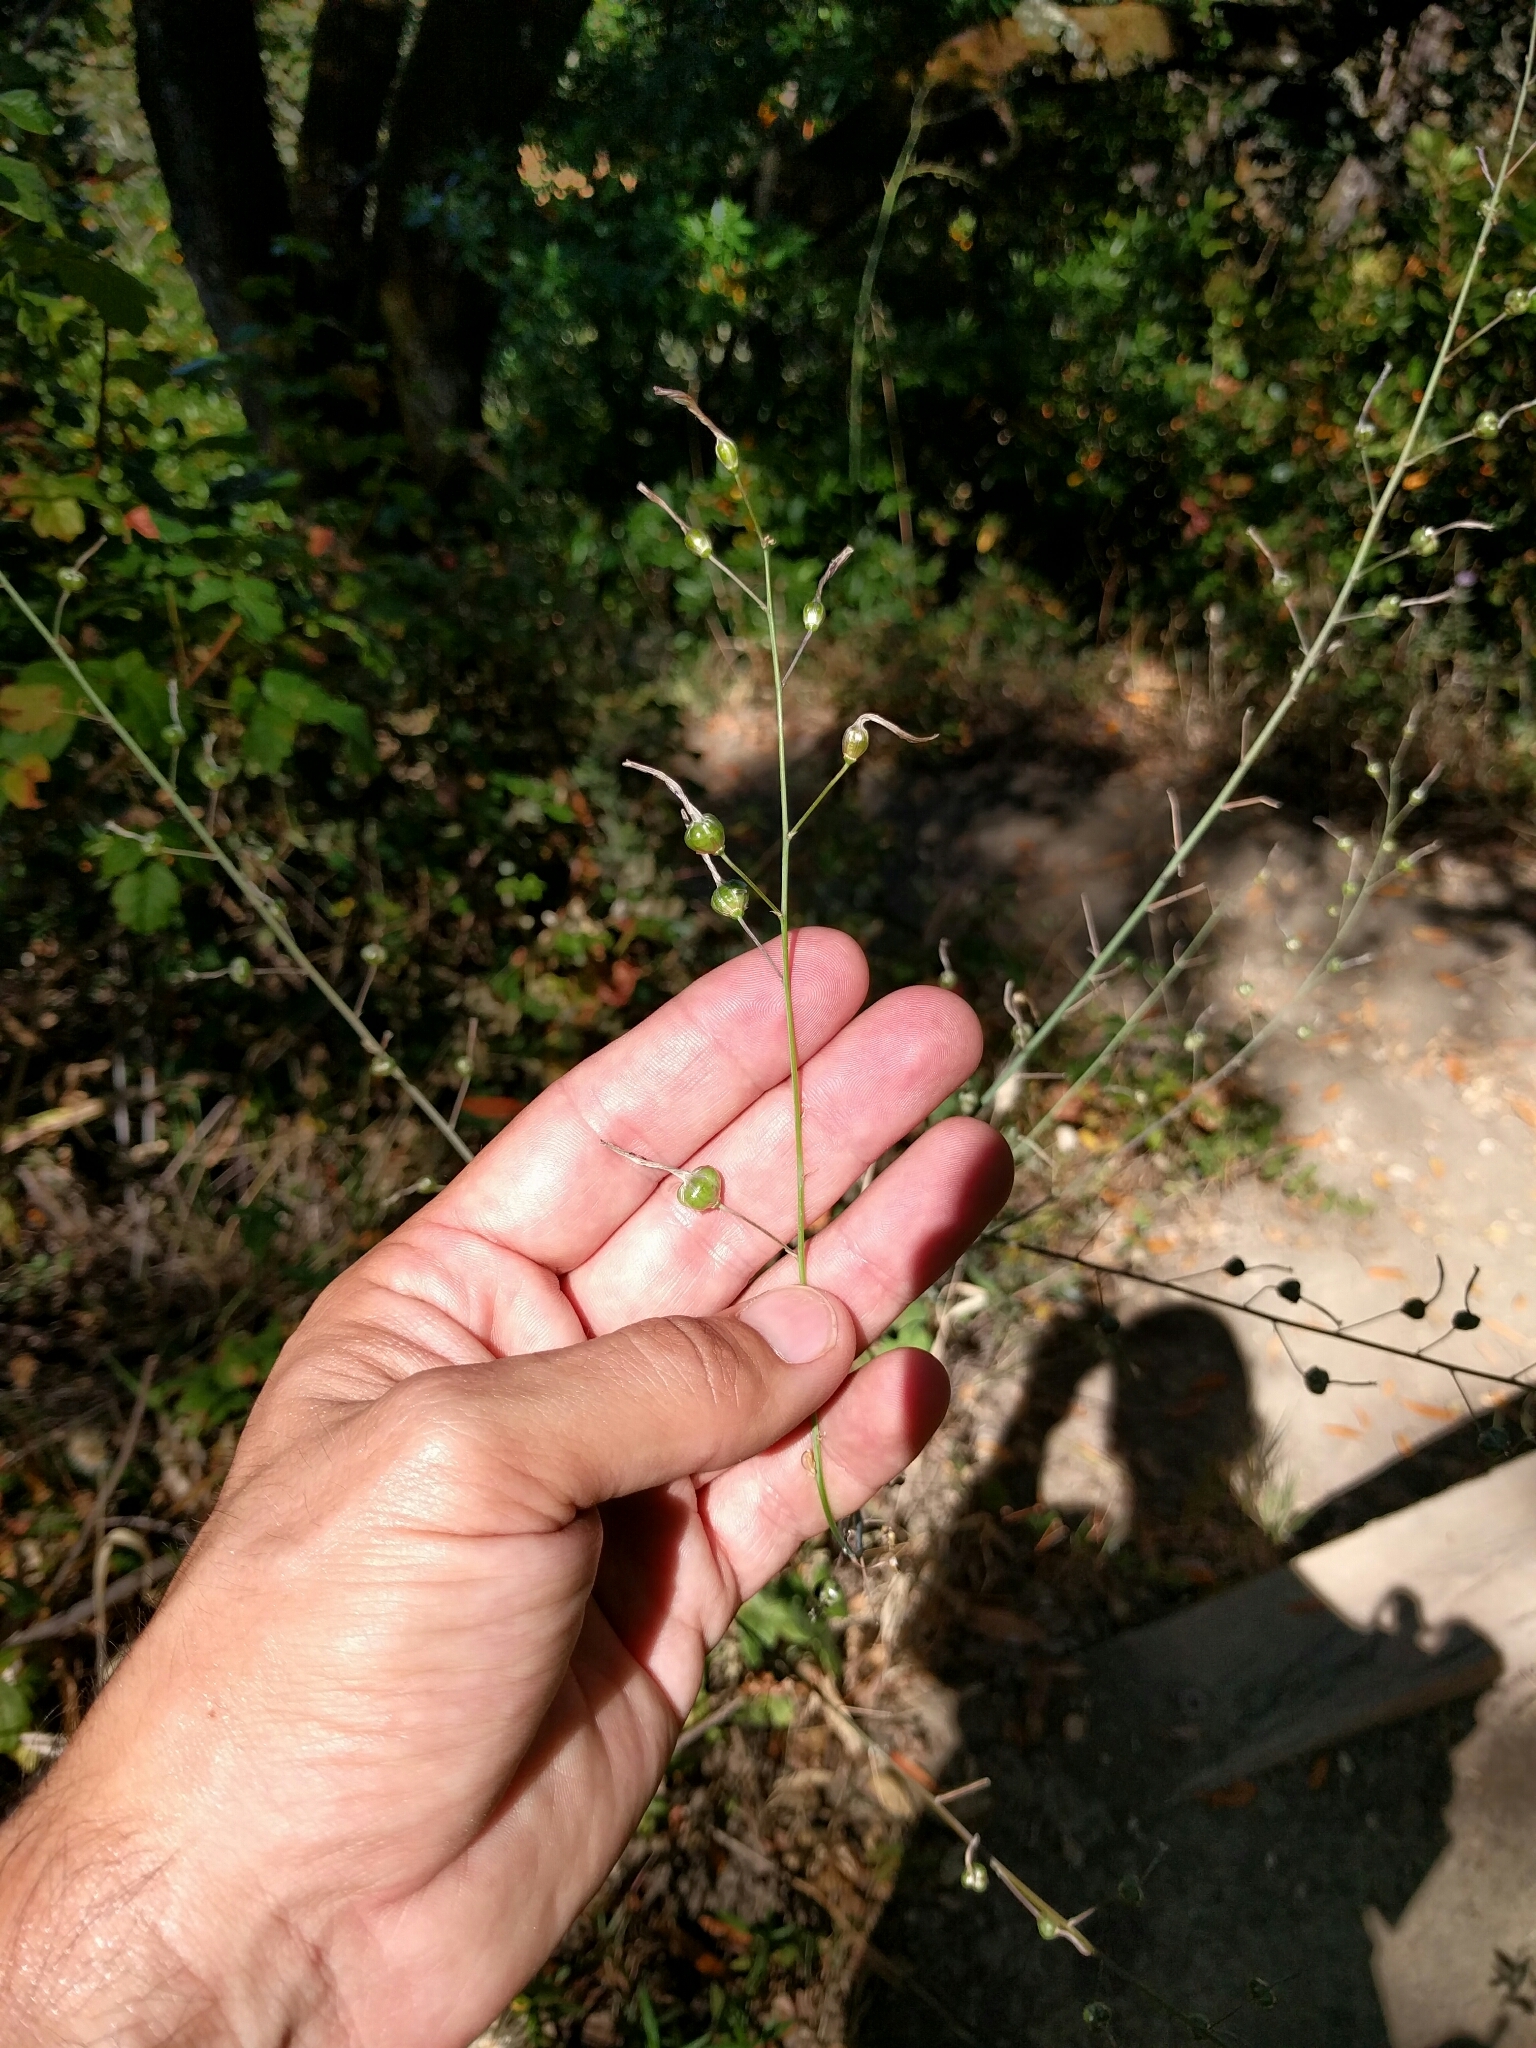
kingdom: Plantae
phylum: Tracheophyta
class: Liliopsida
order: Asparagales
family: Asparagaceae
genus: Chlorogalum
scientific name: Chlorogalum pomeridianum
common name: Amole
